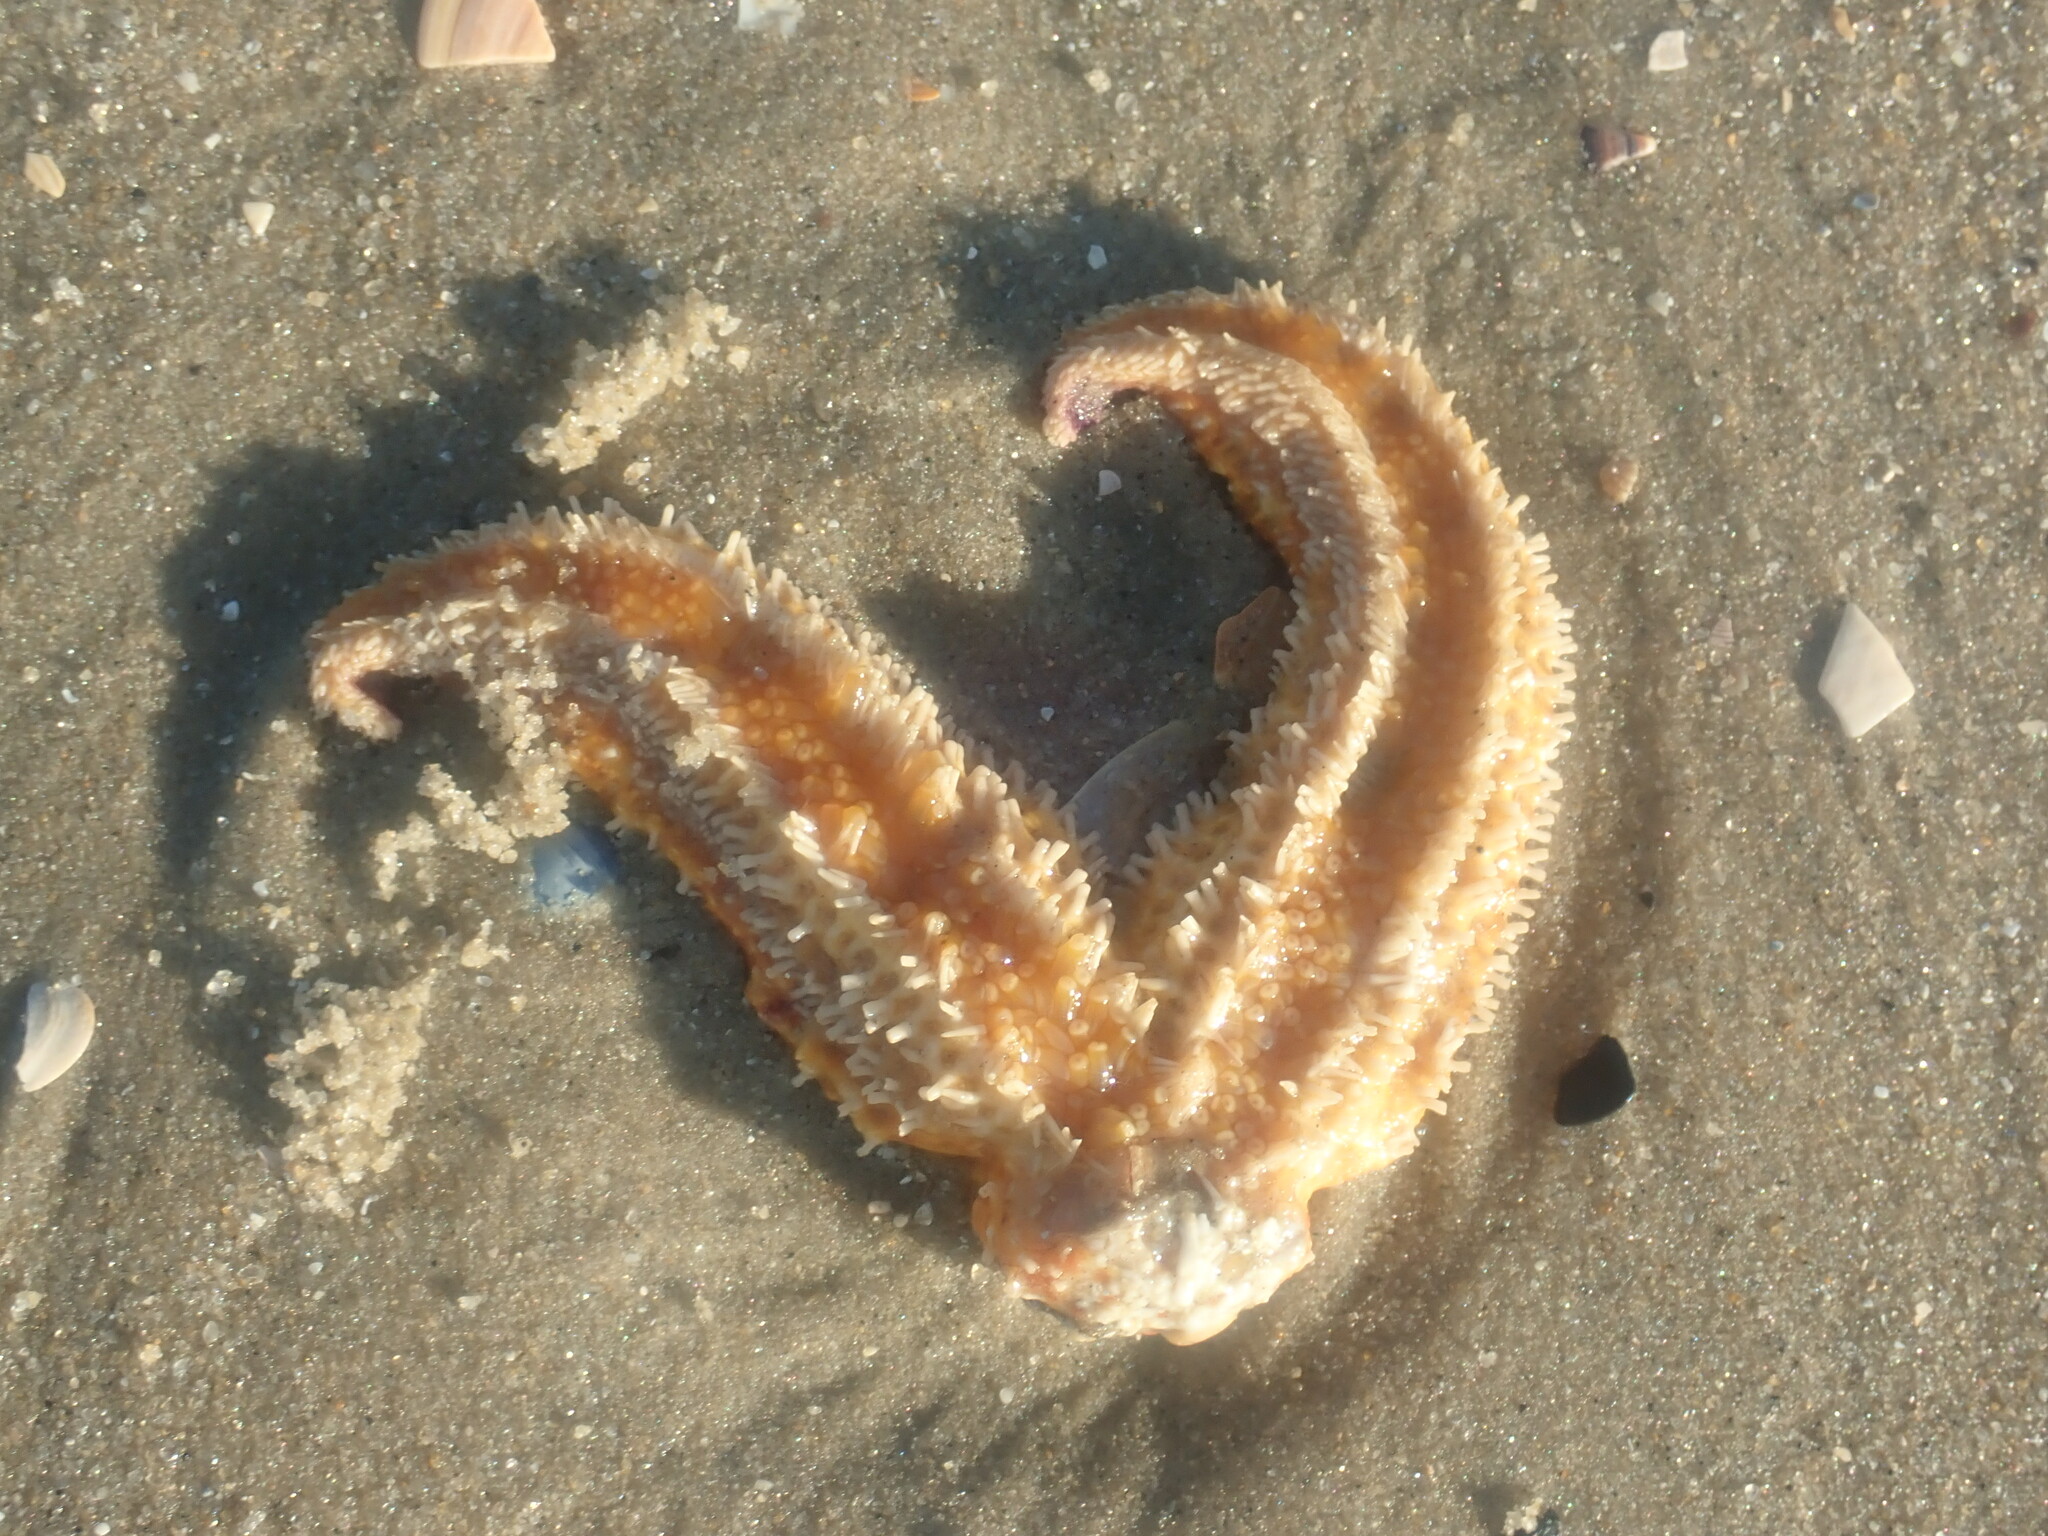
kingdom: Animalia
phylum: Echinodermata
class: Asteroidea
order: Forcipulatida
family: Asteriidae
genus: Asterias
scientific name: Asterias amurensis
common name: Flat-bottomed star
